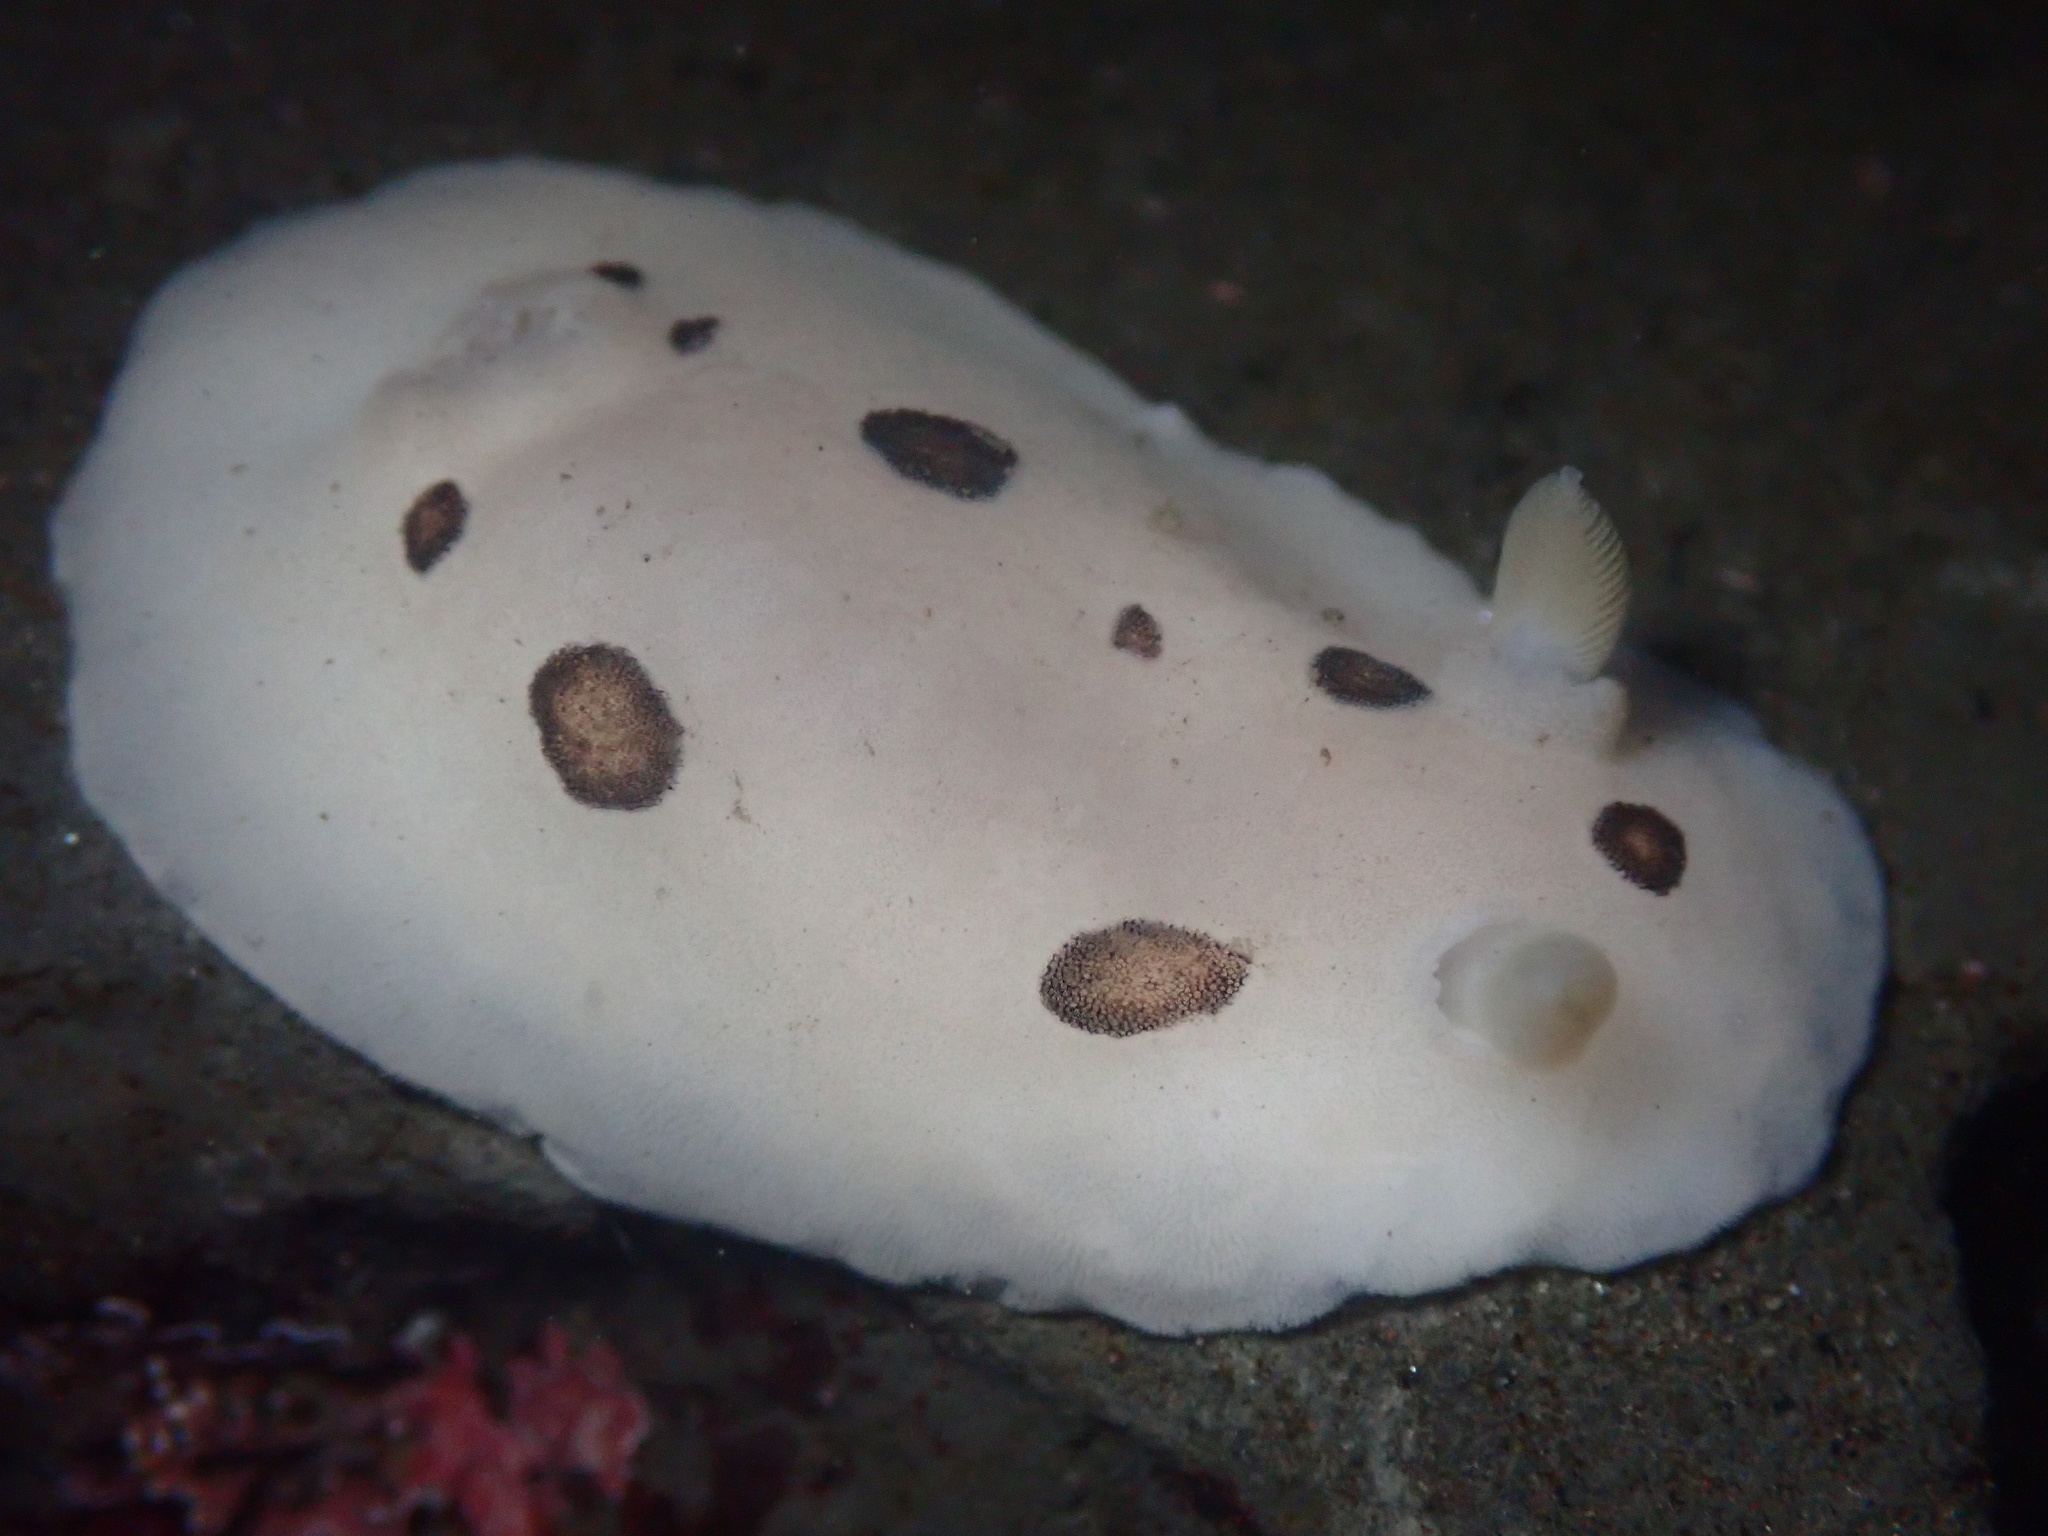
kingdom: Animalia
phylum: Mollusca
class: Gastropoda
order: Nudibranchia
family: Discodorididae
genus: Diaulula
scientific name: Diaulula sandiegensis
